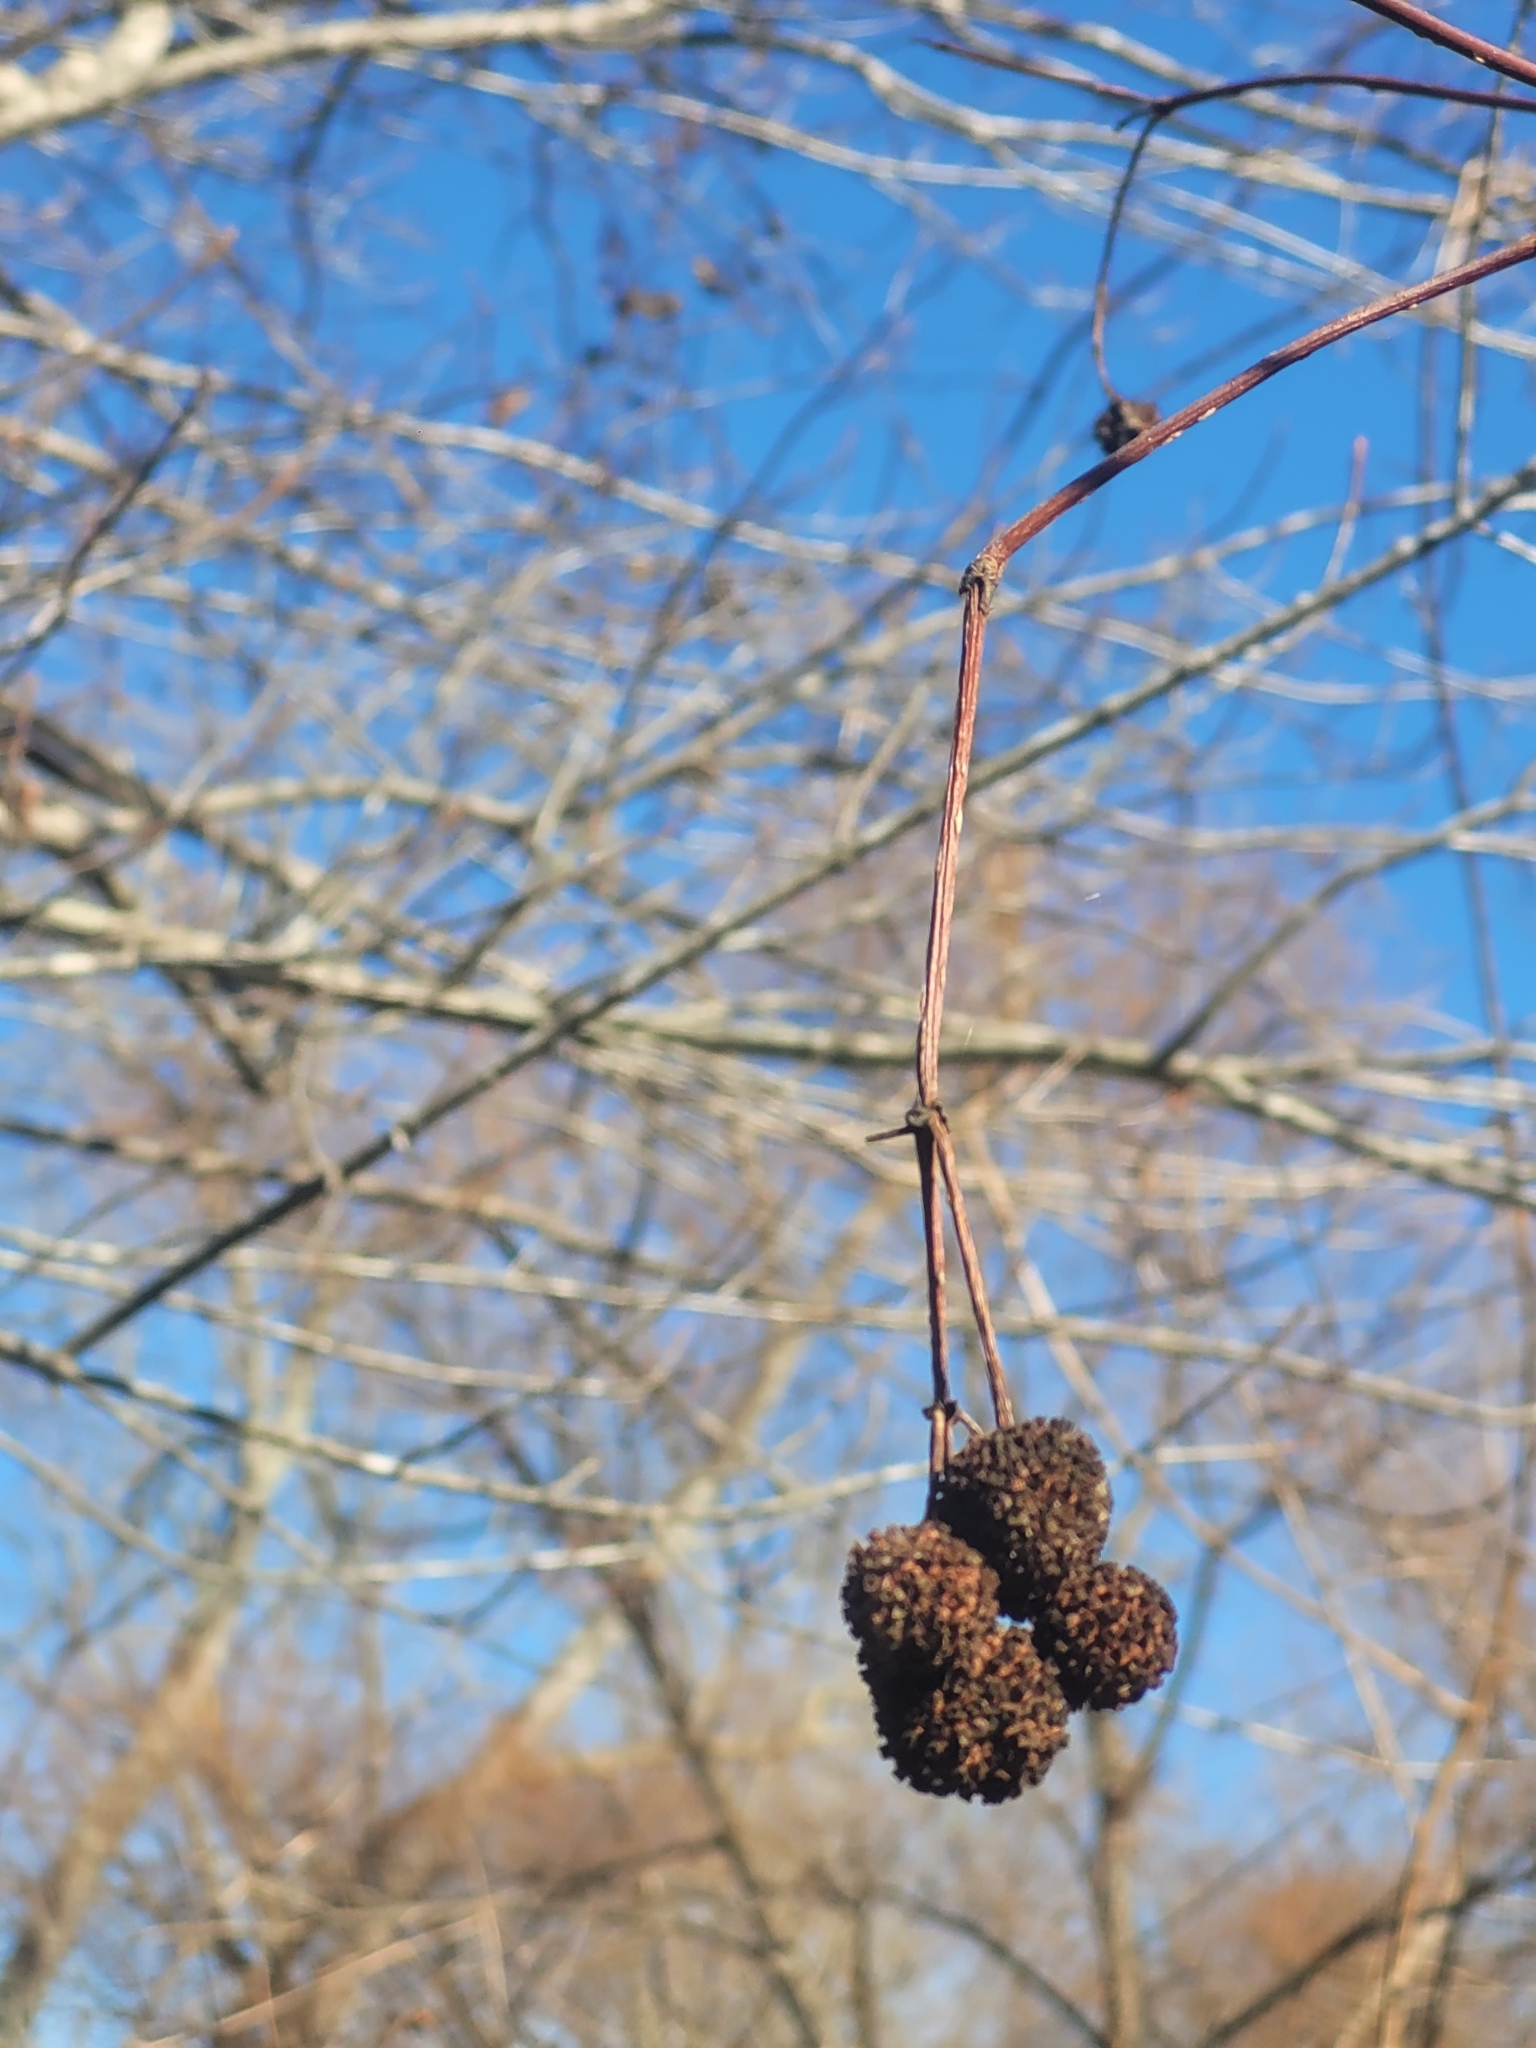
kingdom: Plantae
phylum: Tracheophyta
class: Magnoliopsida
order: Gentianales
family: Rubiaceae
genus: Cephalanthus
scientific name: Cephalanthus occidentalis
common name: Button-willow
